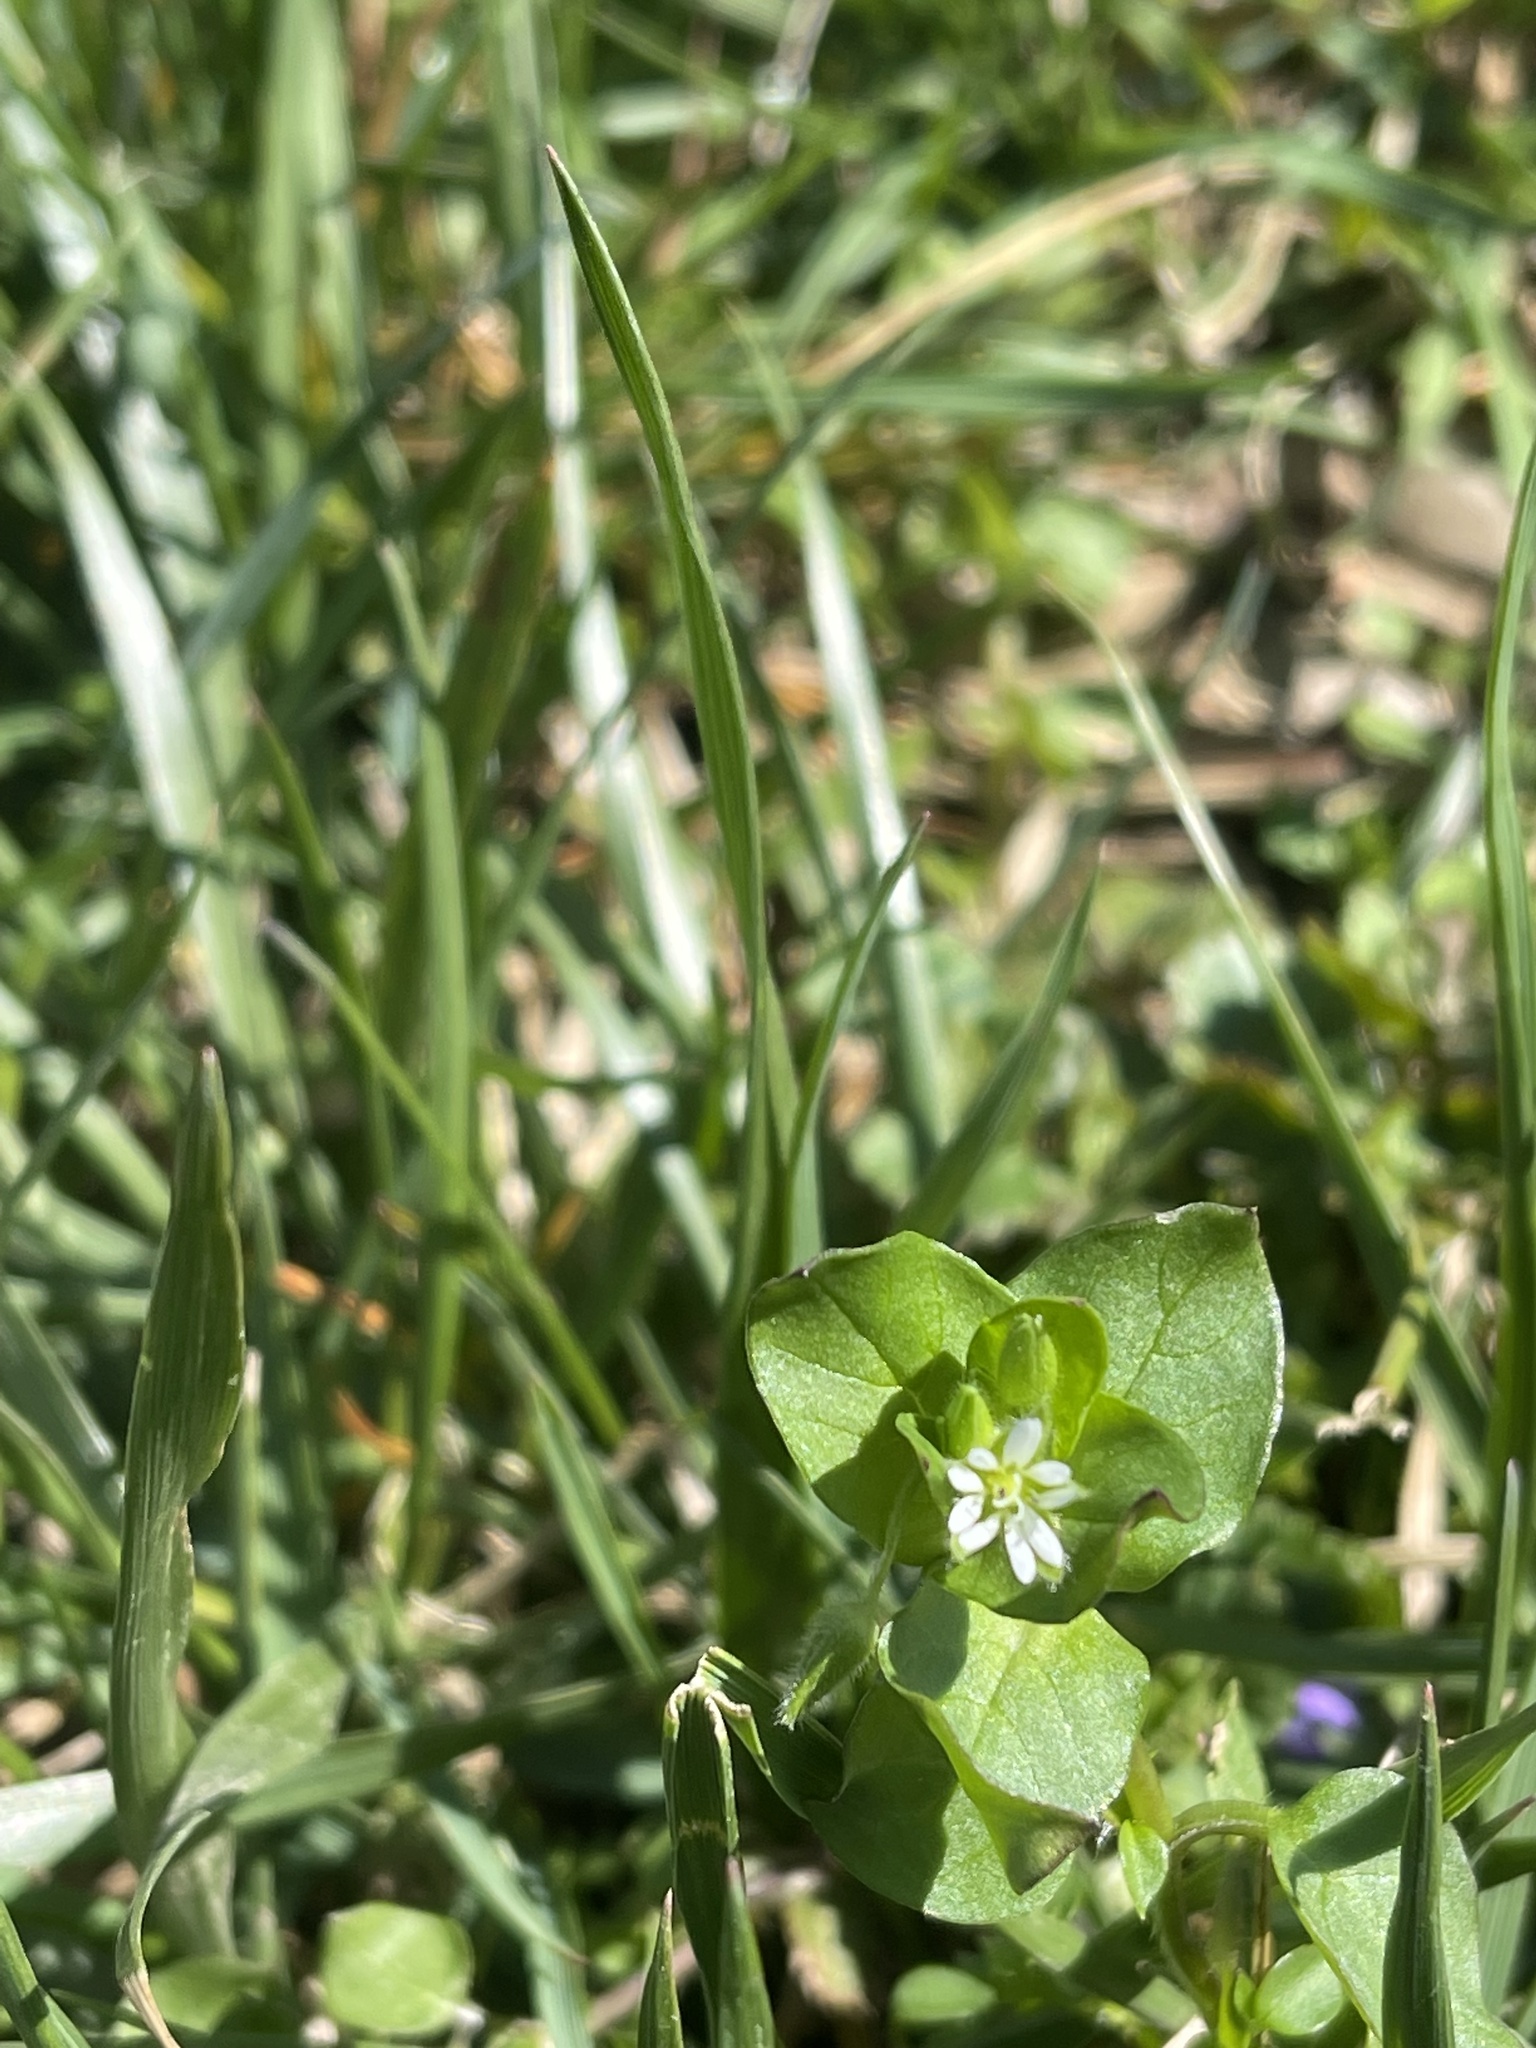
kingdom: Plantae
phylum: Tracheophyta
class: Magnoliopsida
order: Caryophyllales
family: Caryophyllaceae
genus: Stellaria
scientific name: Stellaria media
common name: Common chickweed
